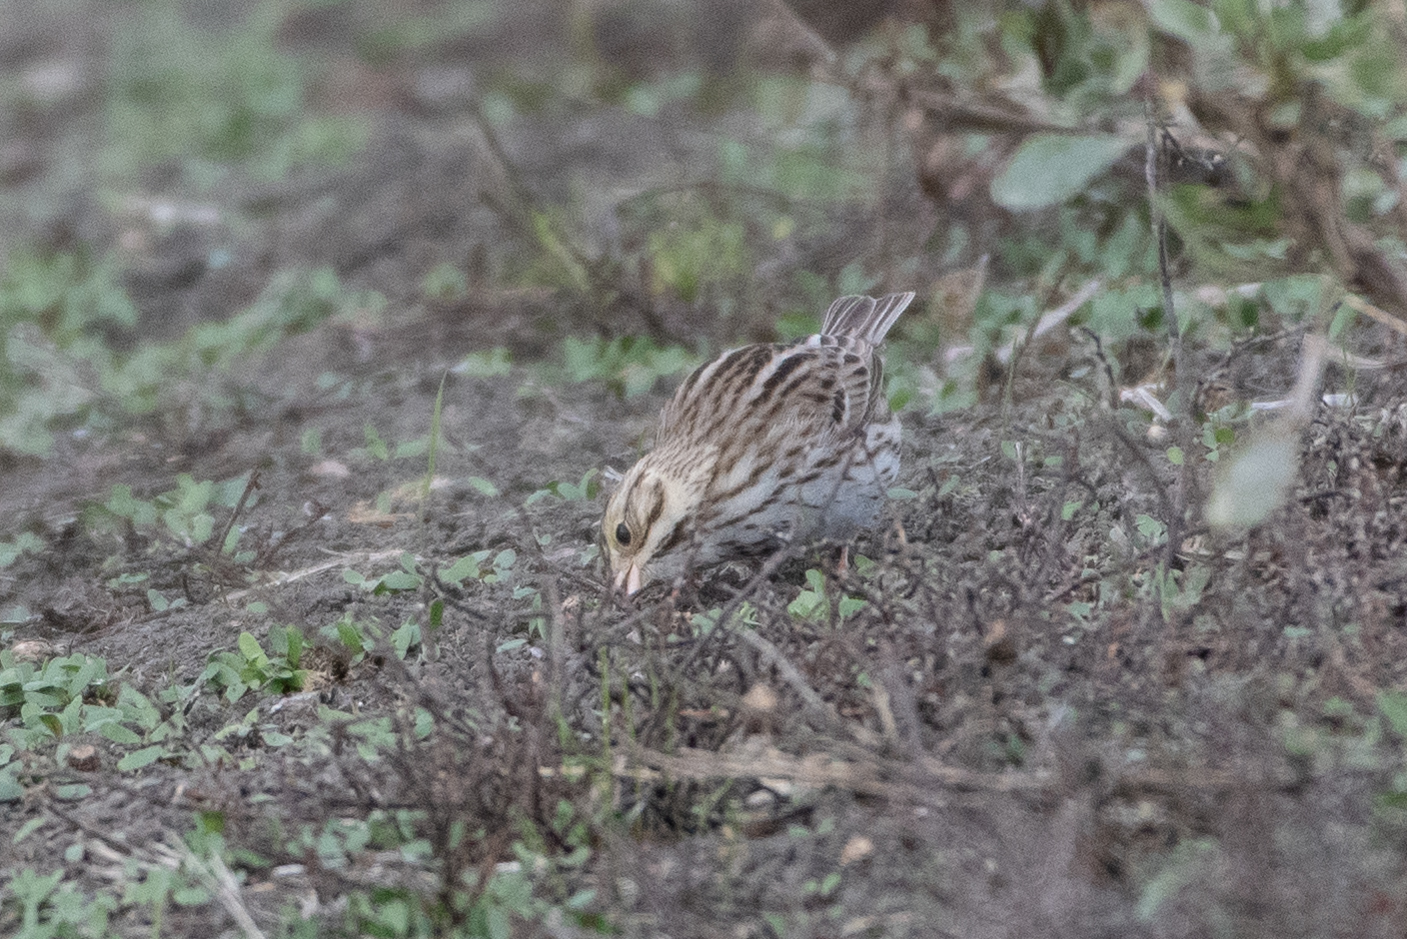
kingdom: Animalia
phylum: Chordata
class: Aves
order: Passeriformes
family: Passerellidae
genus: Passerculus
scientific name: Passerculus sandwichensis
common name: Savannah sparrow
